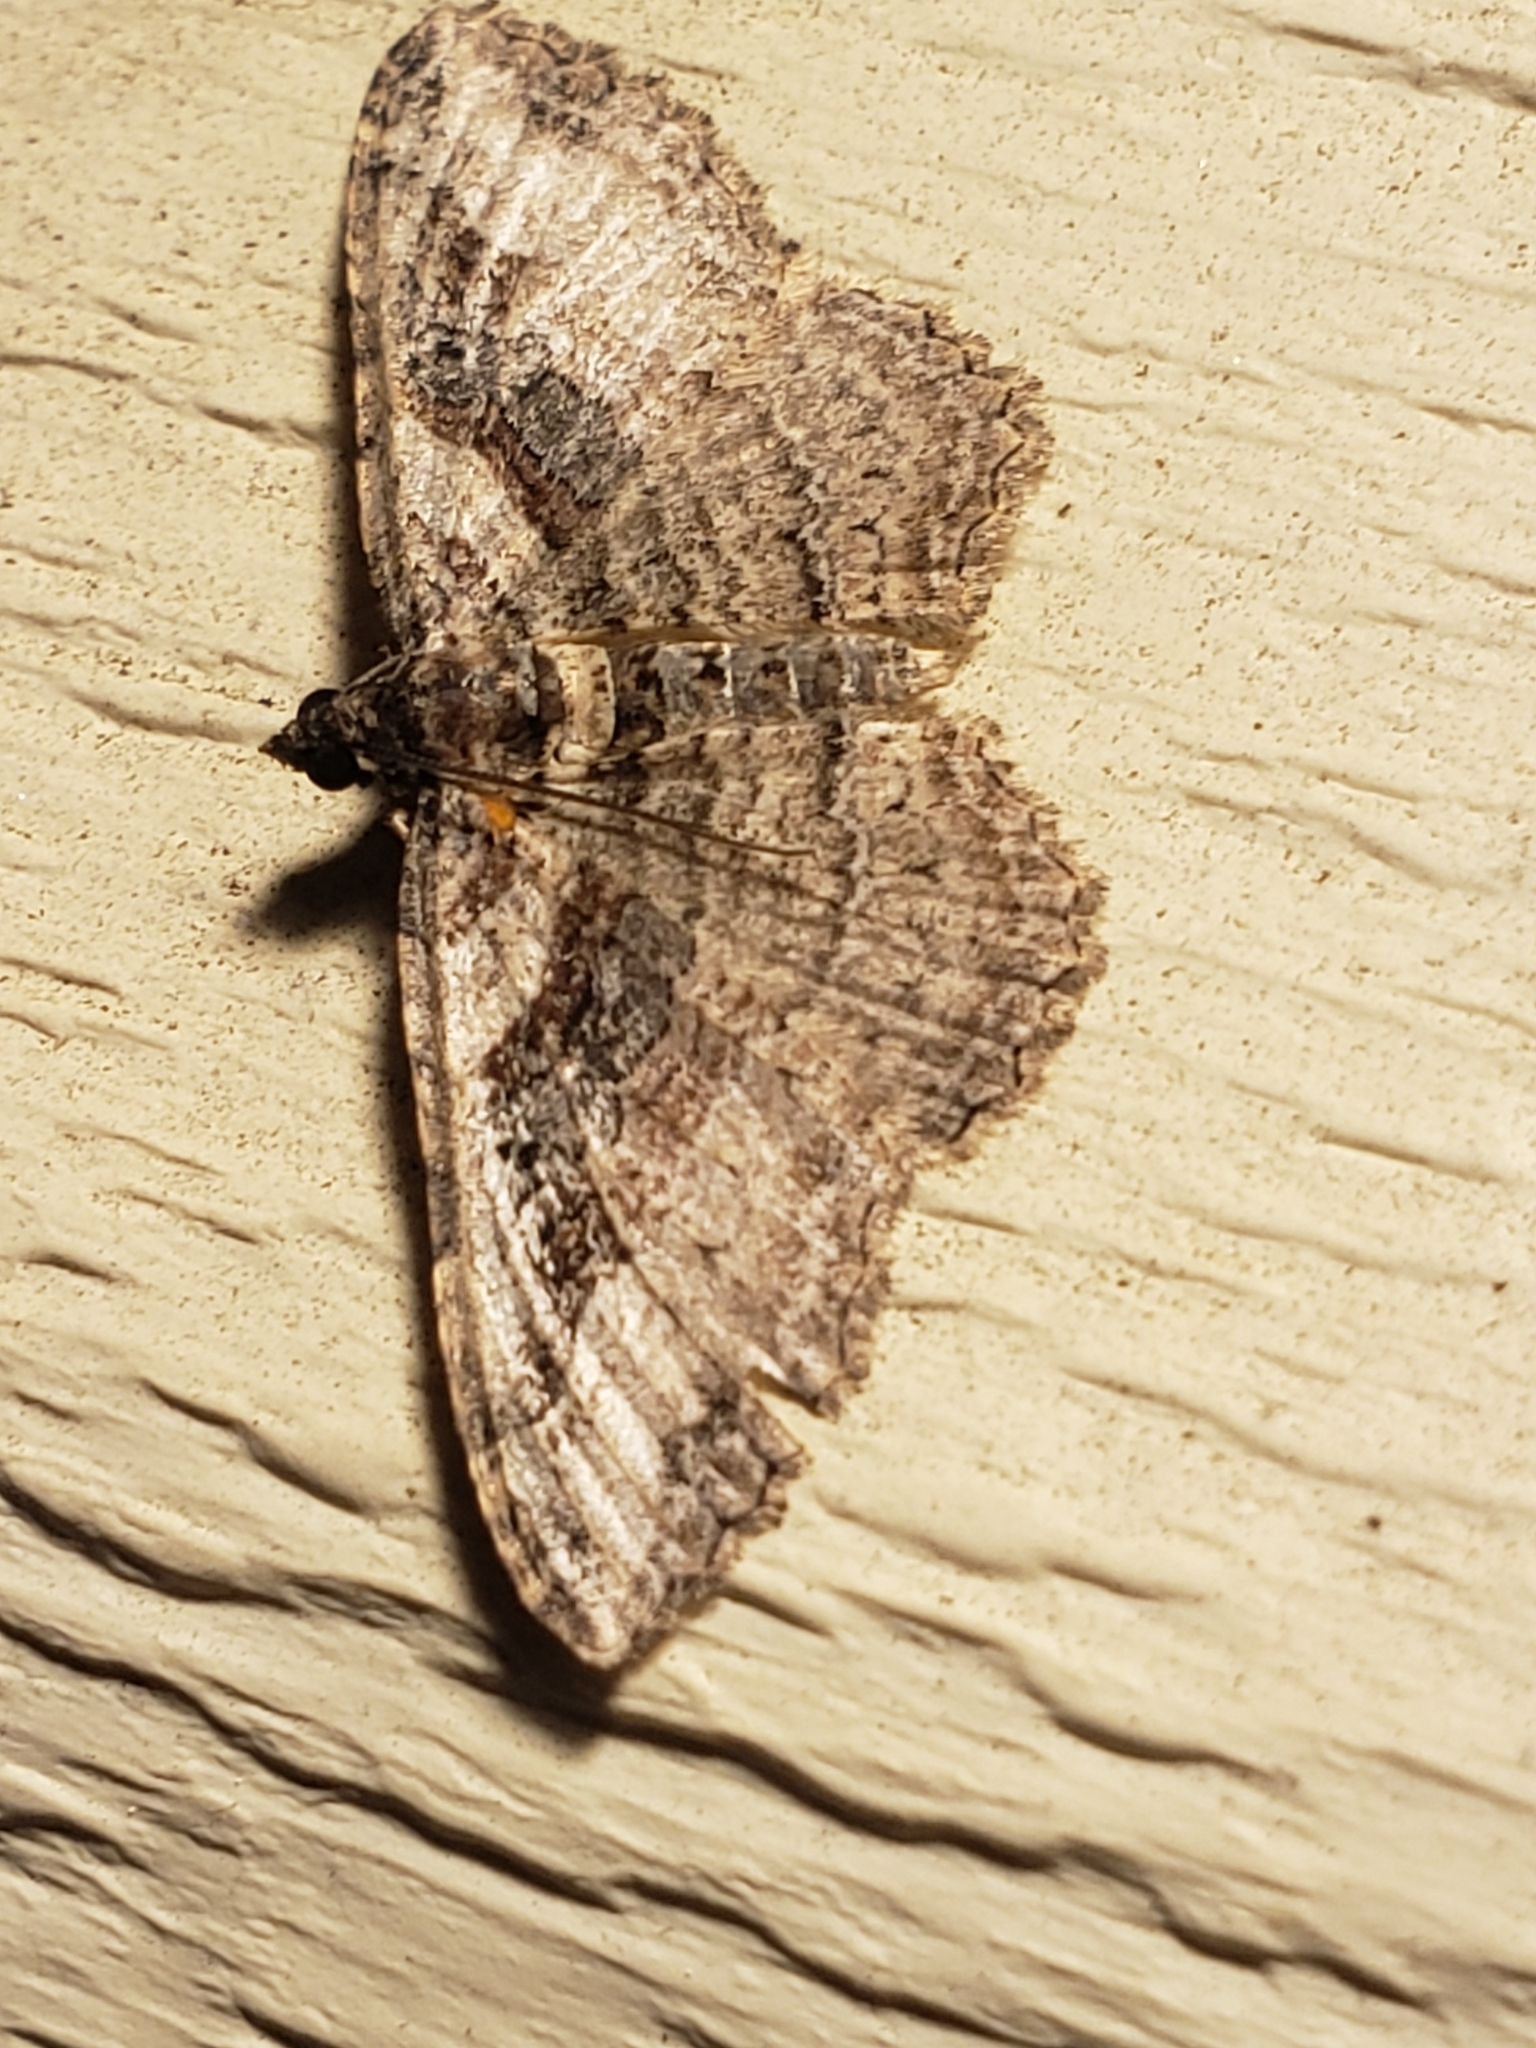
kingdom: Animalia
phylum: Arthropoda
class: Insecta
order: Lepidoptera
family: Geometridae
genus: Costaconvexa
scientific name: Costaconvexa centrostrigaria
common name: Bent-line carpet
